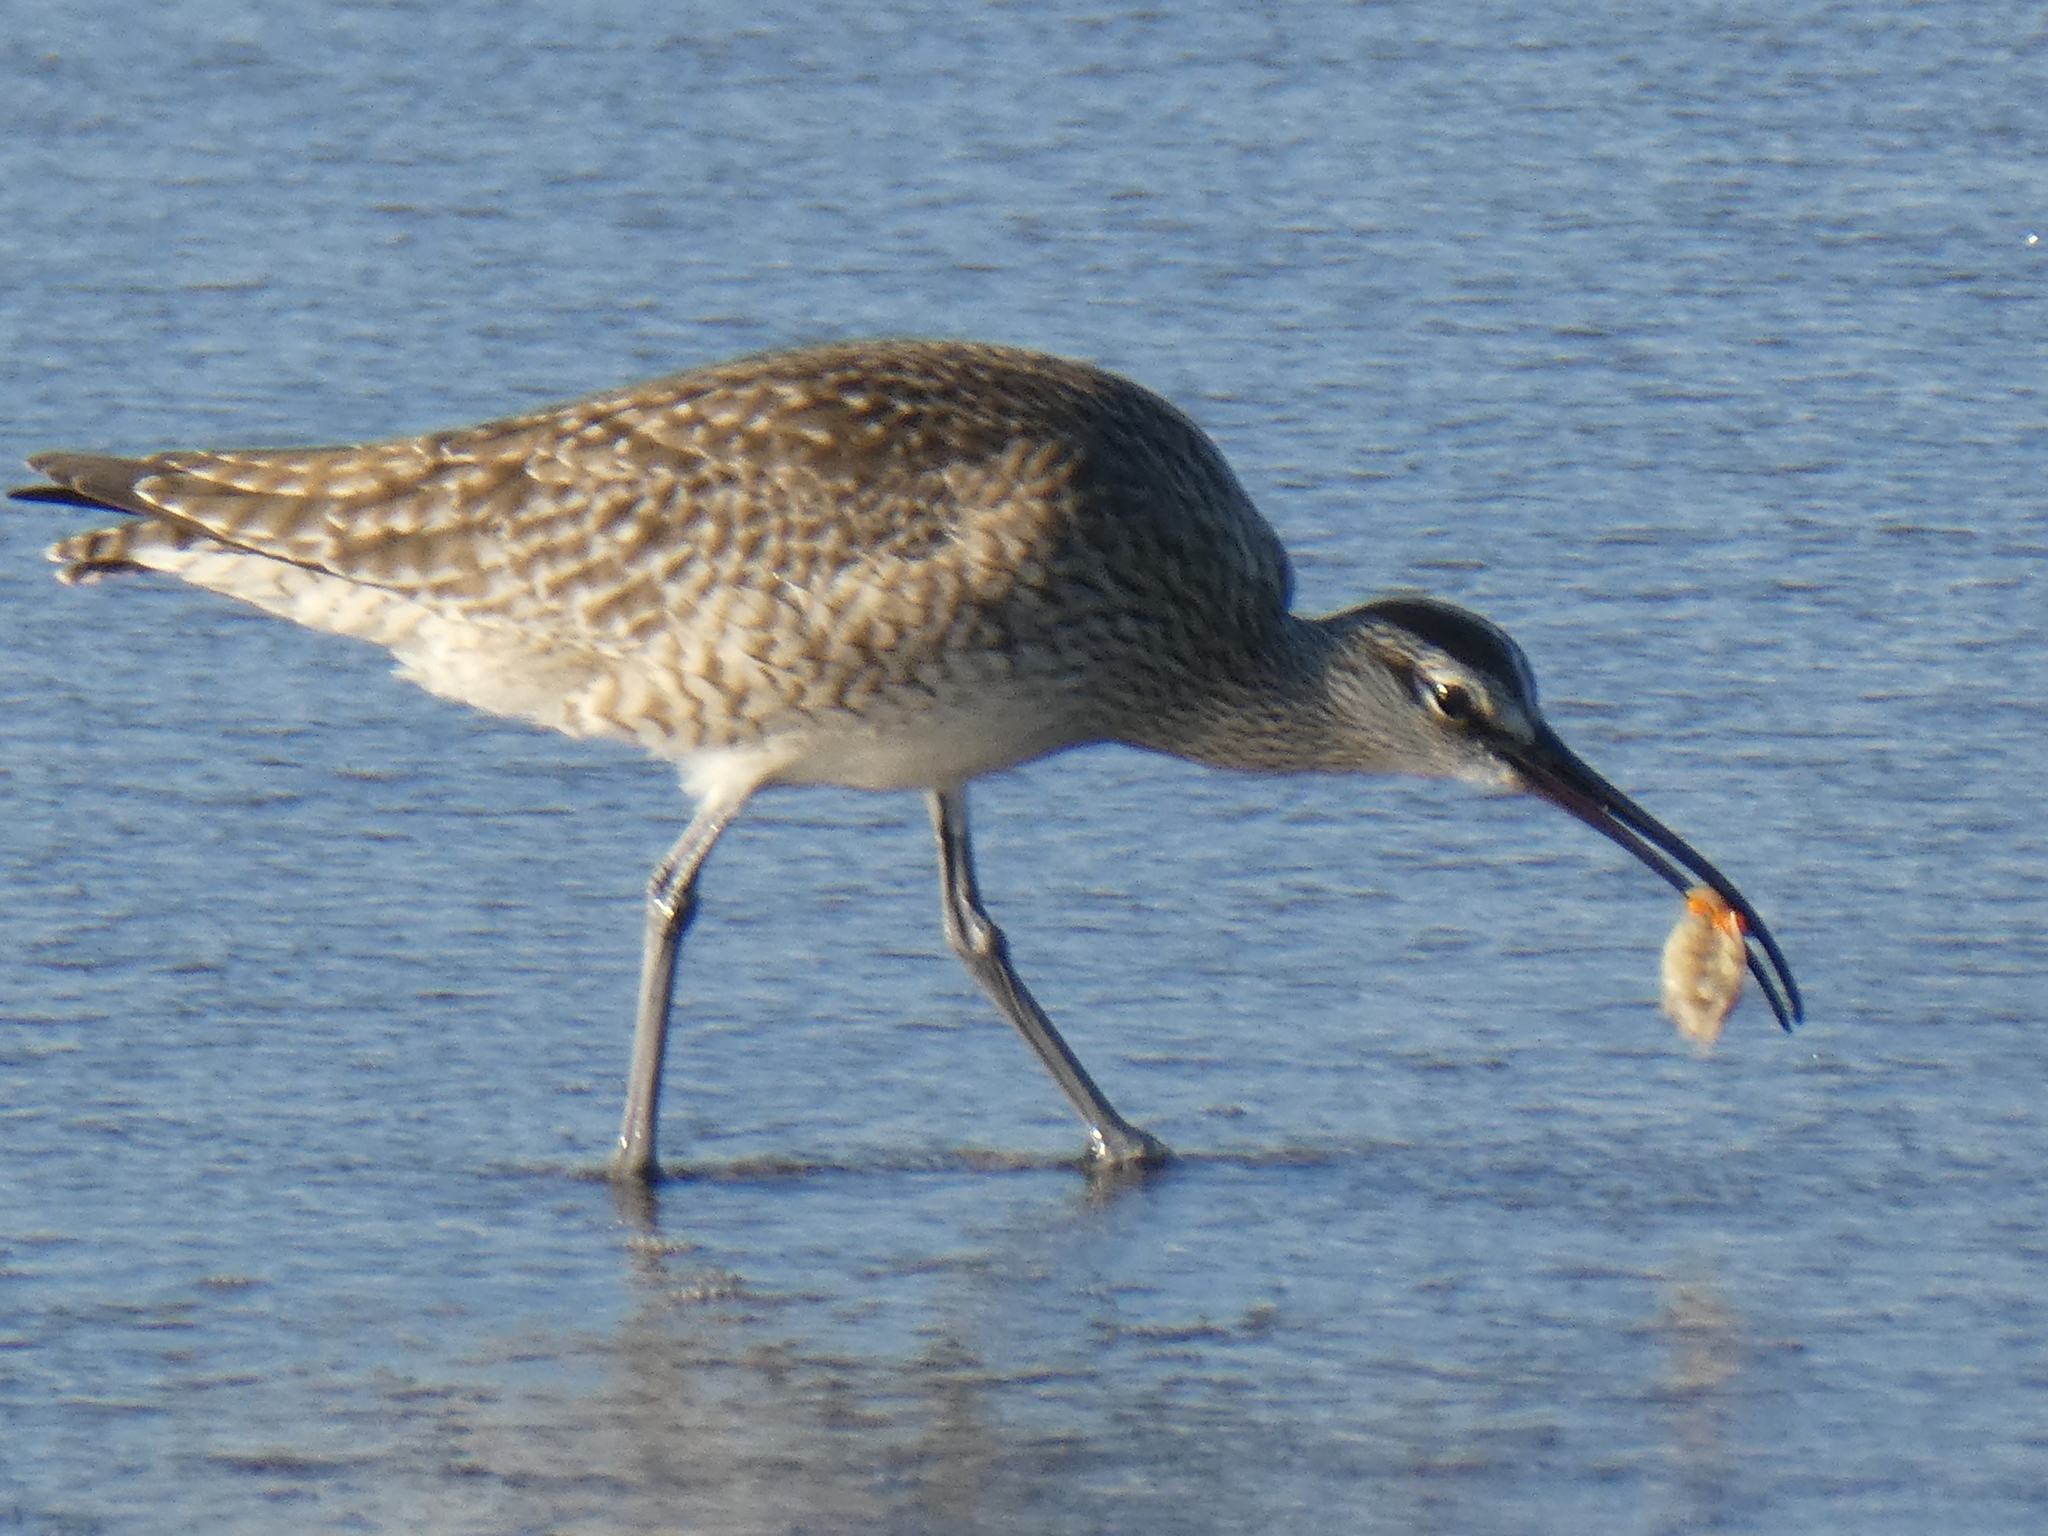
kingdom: Animalia
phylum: Chordata
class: Aves
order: Charadriiformes
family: Scolopacidae
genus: Numenius
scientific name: Numenius phaeopus
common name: Whimbrel
